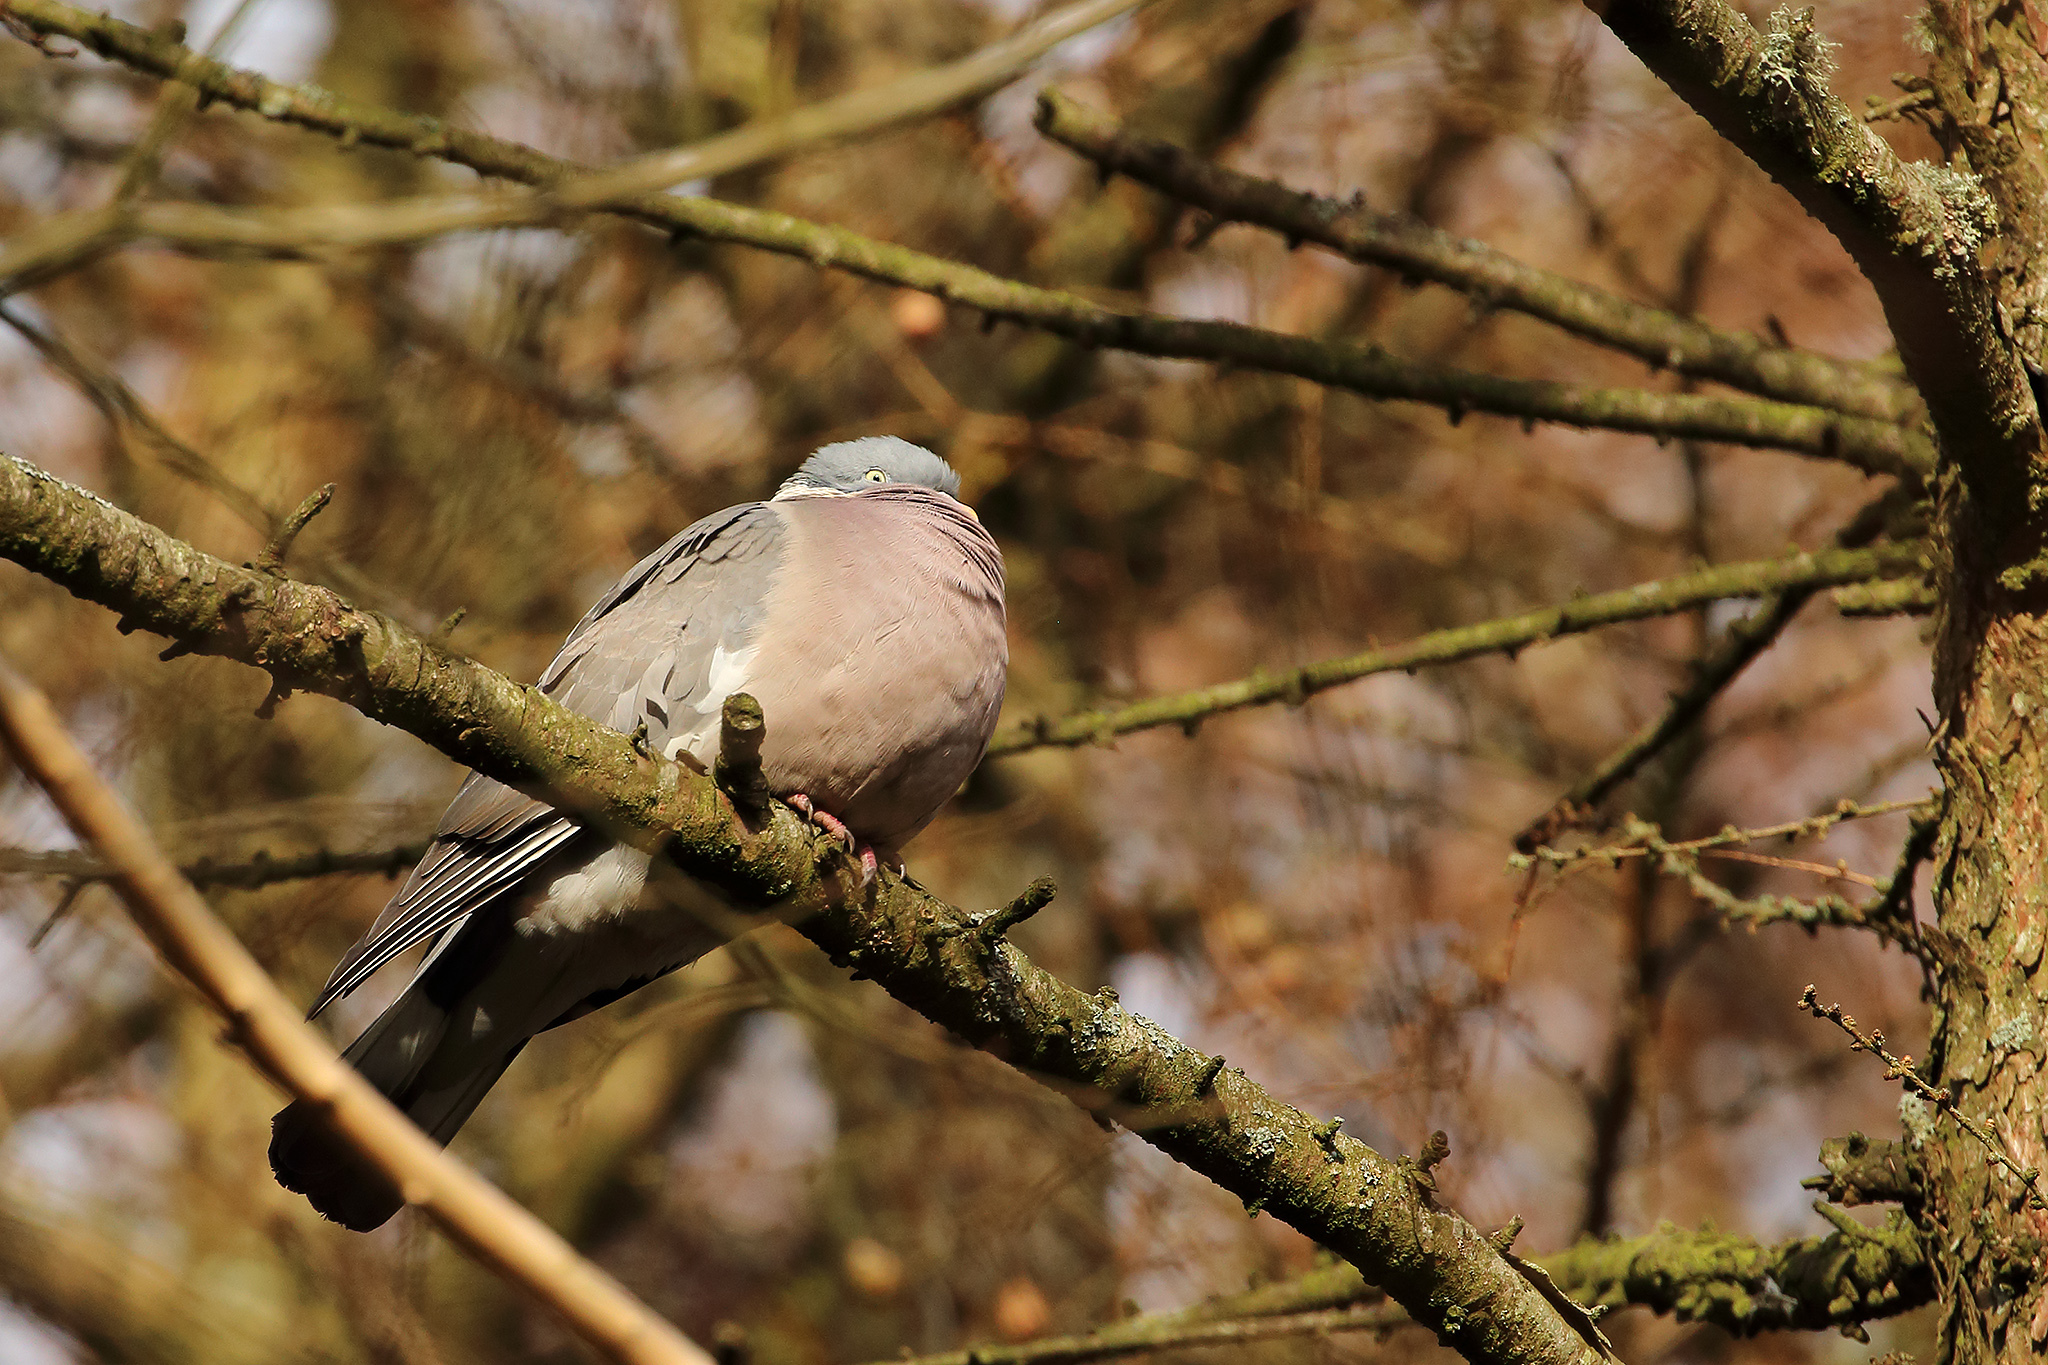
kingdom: Animalia
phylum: Chordata
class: Aves
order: Columbiformes
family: Columbidae
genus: Columba
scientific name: Columba palumbus
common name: Common wood pigeon
